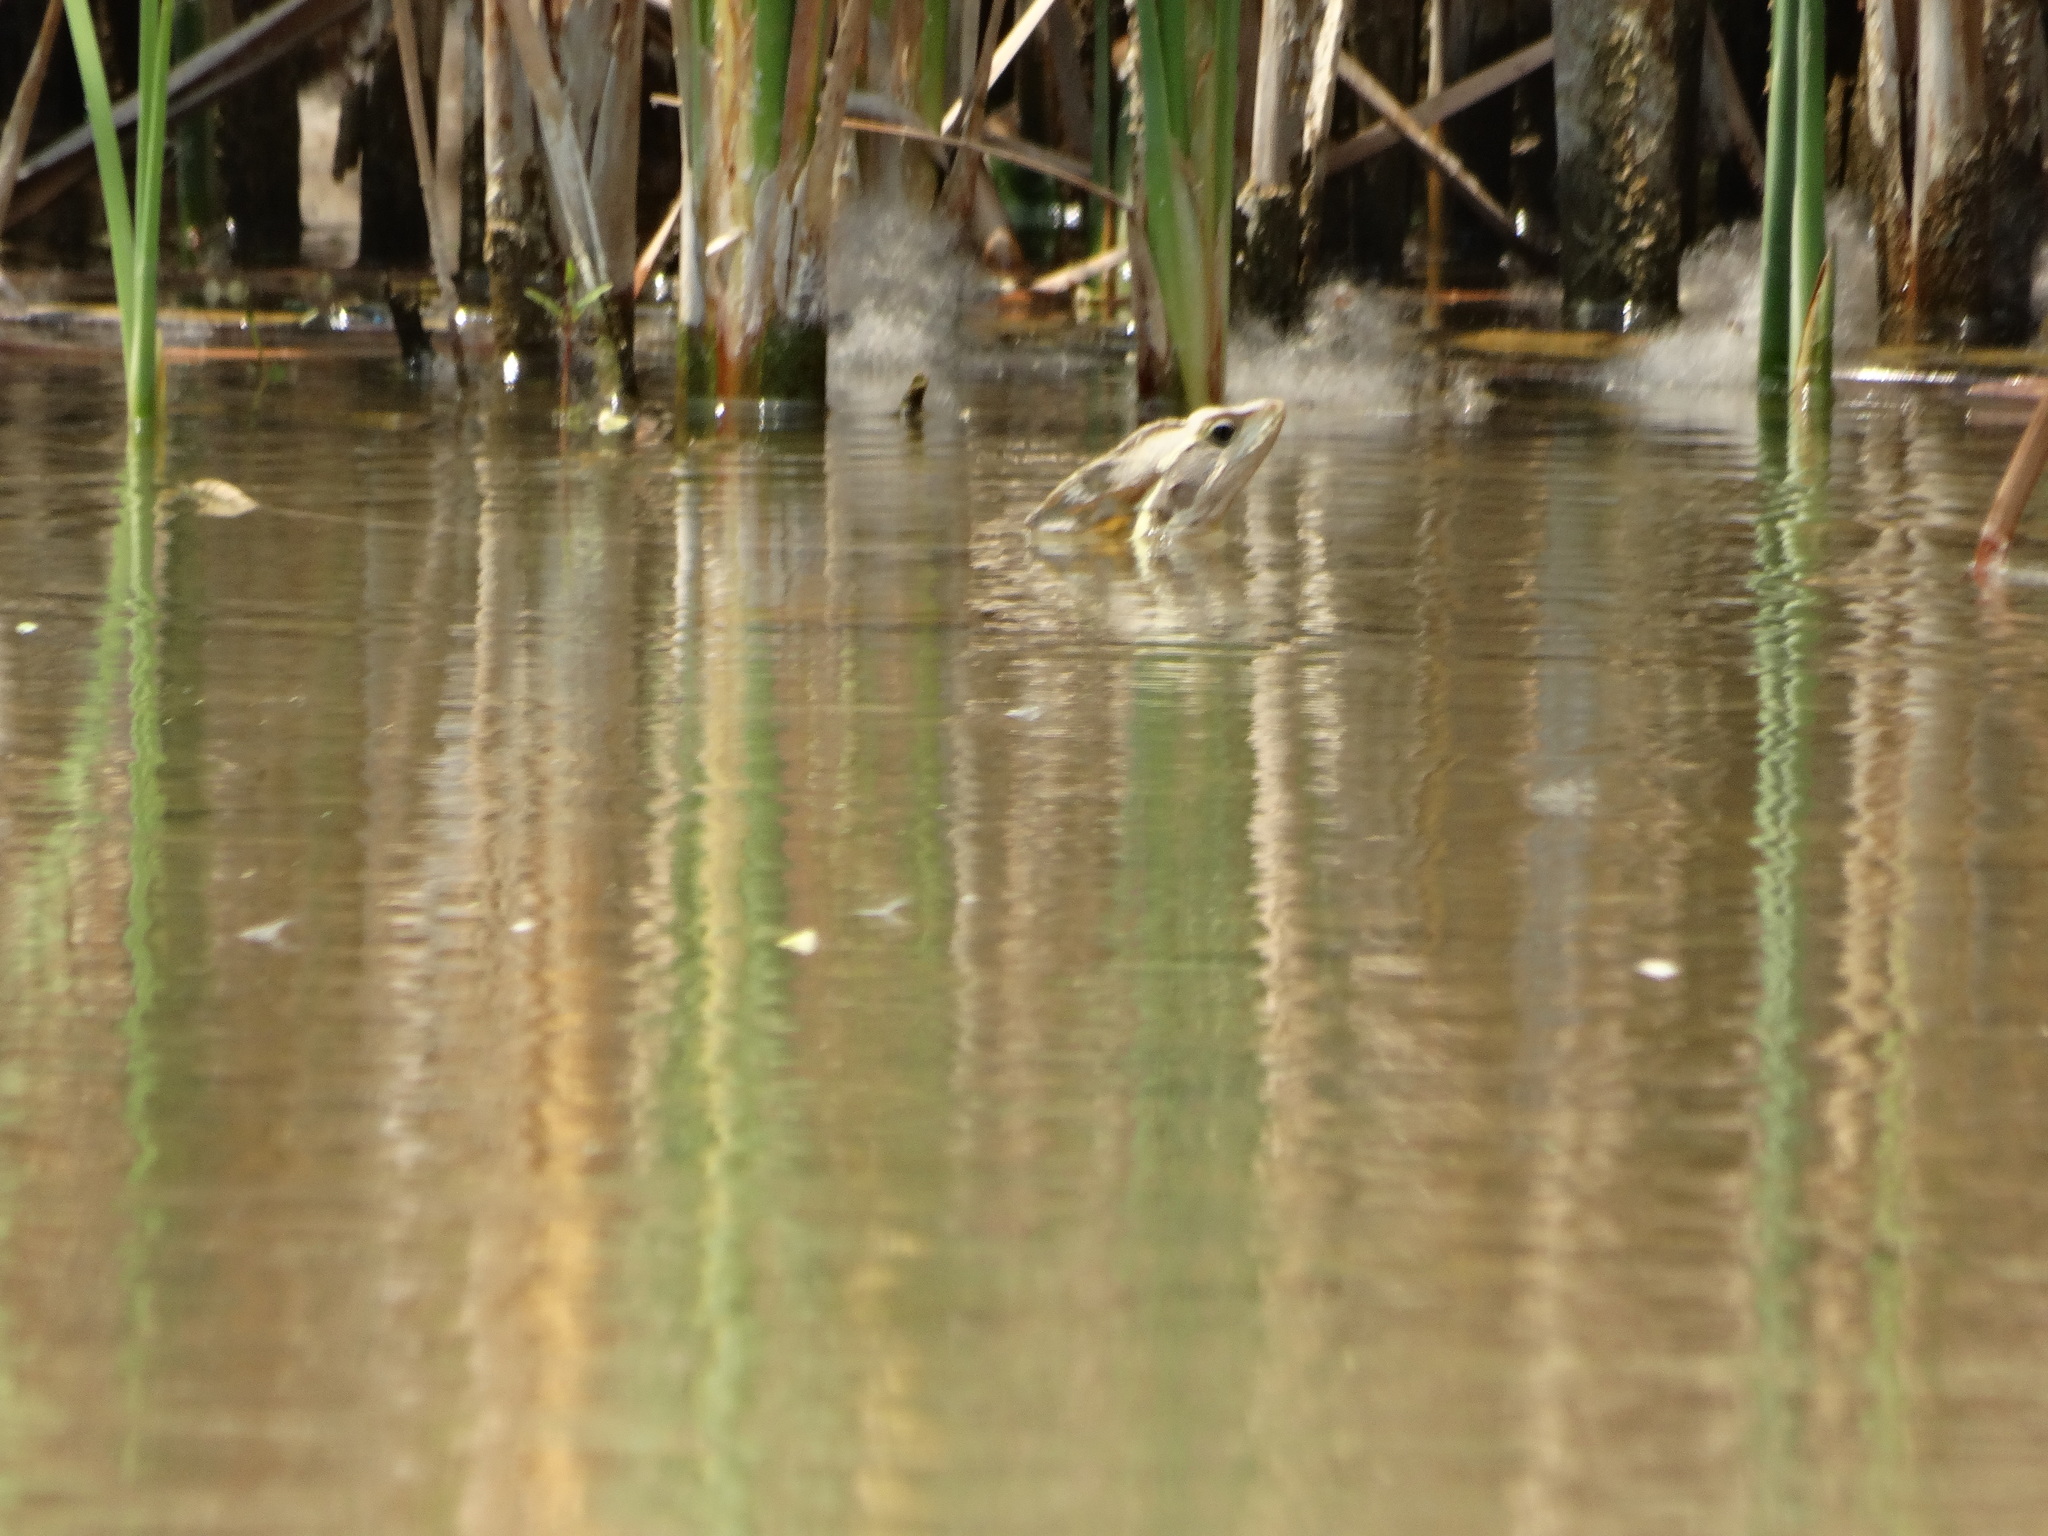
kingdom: Animalia
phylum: Chordata
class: Squamata
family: Corytophanidae
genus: Basiliscus
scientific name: Basiliscus vittatus
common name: Brown basilisk
